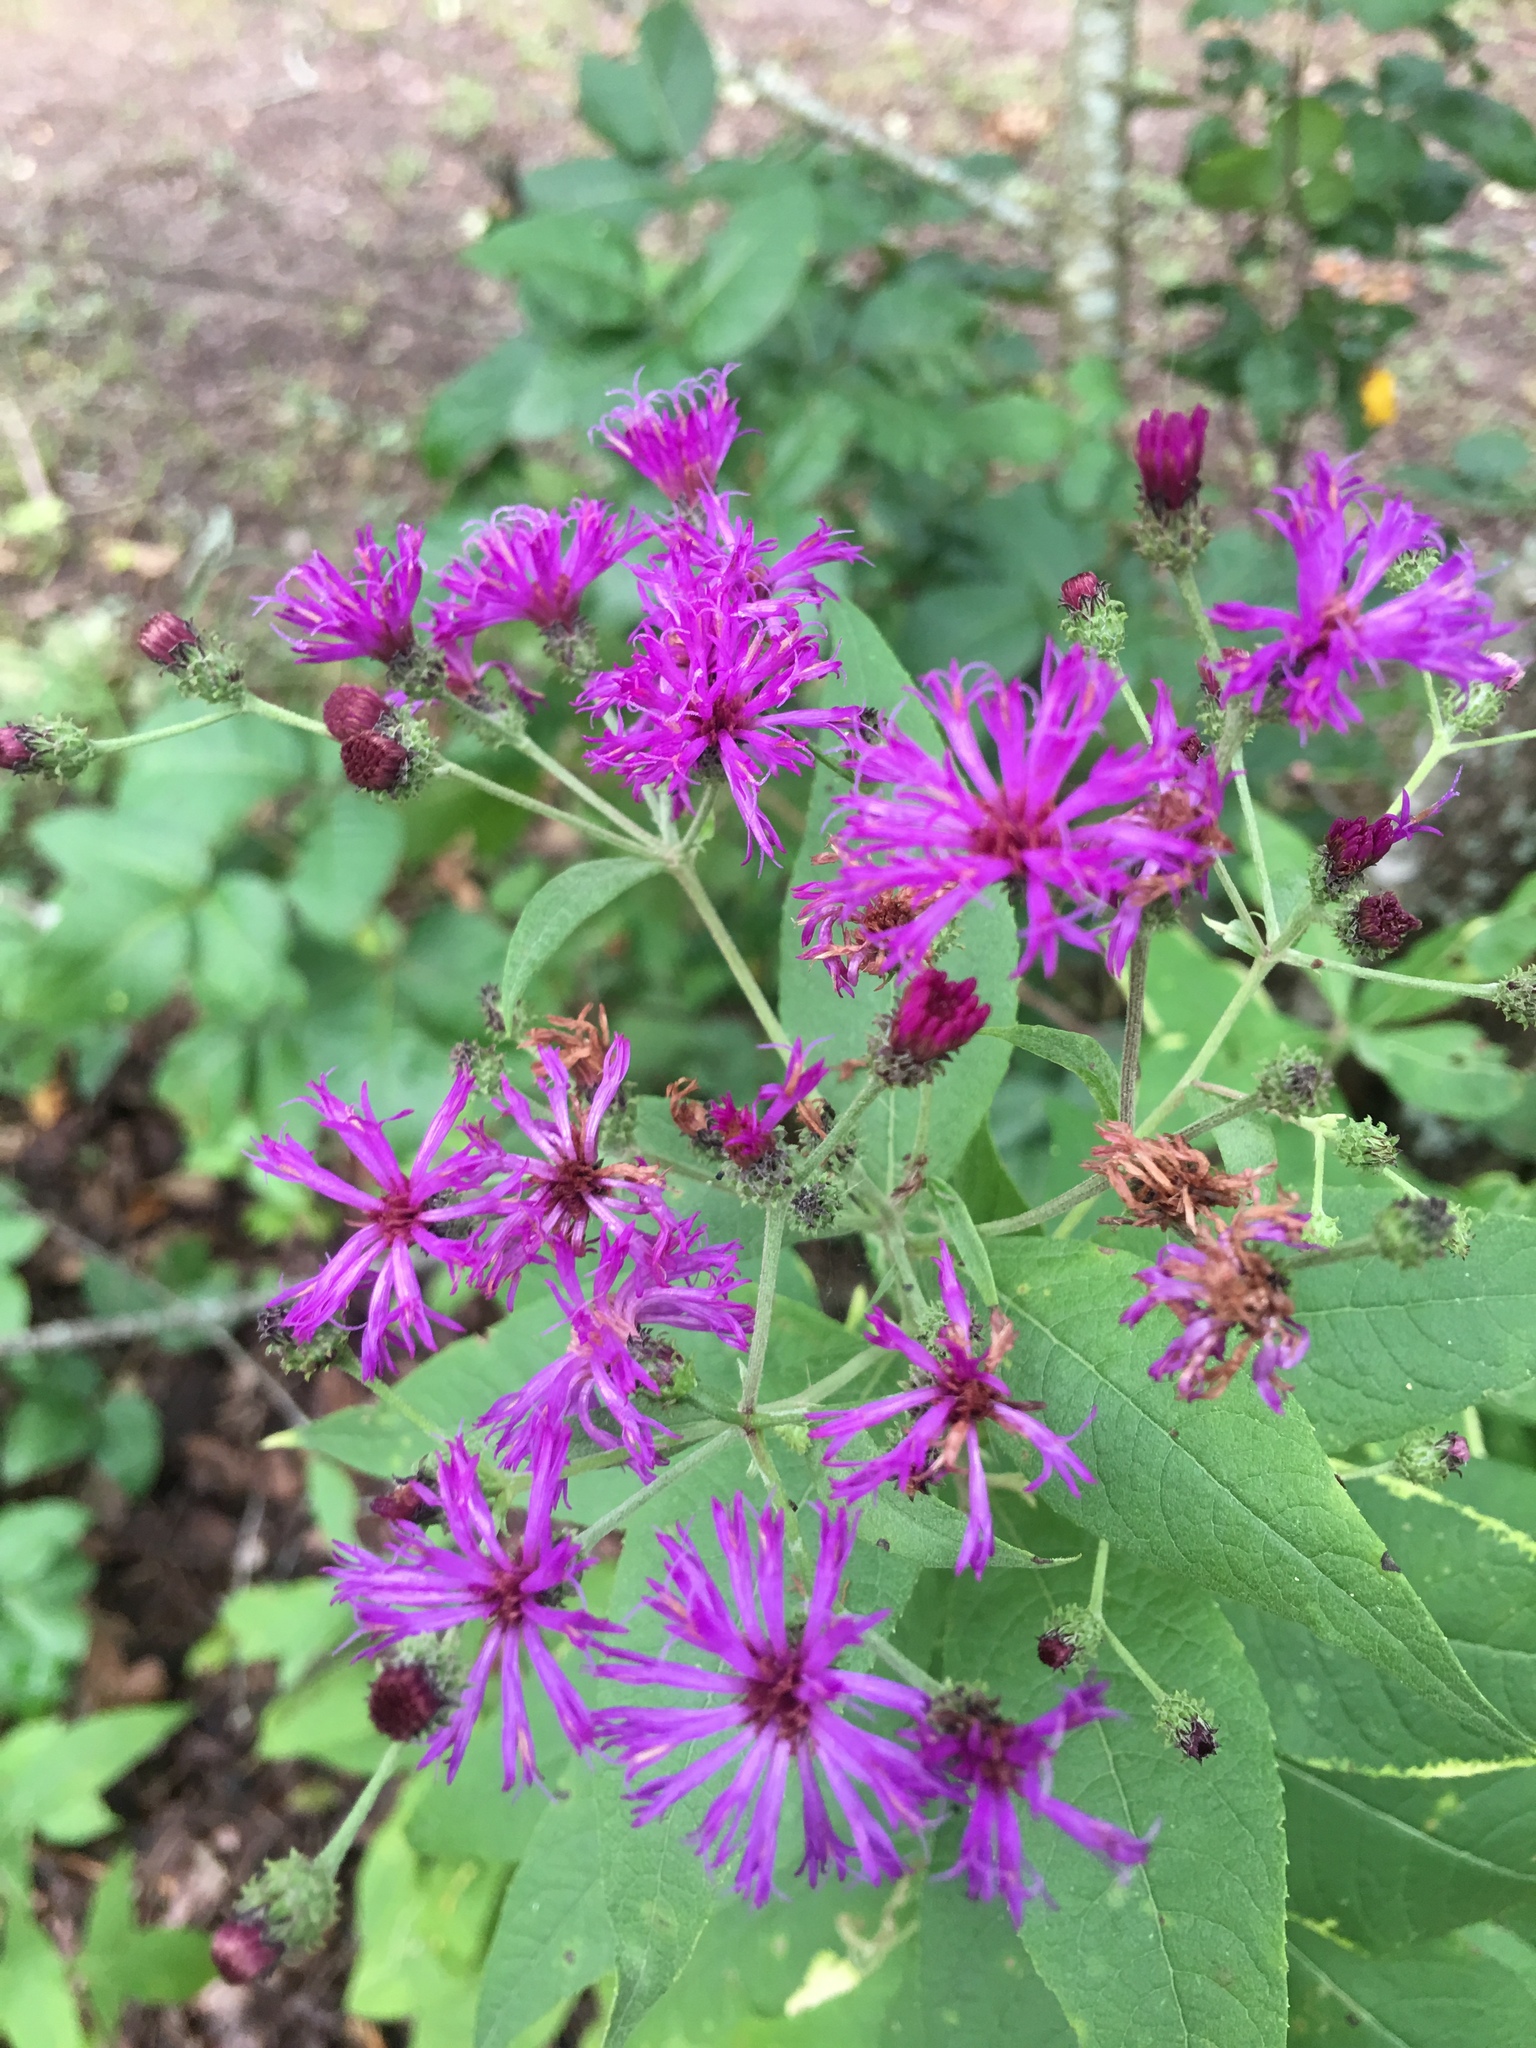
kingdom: Plantae
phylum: Tracheophyta
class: Magnoliopsida
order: Asterales
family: Asteraceae
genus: Vernonia
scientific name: Vernonia baldwinii
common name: Western ironweed
